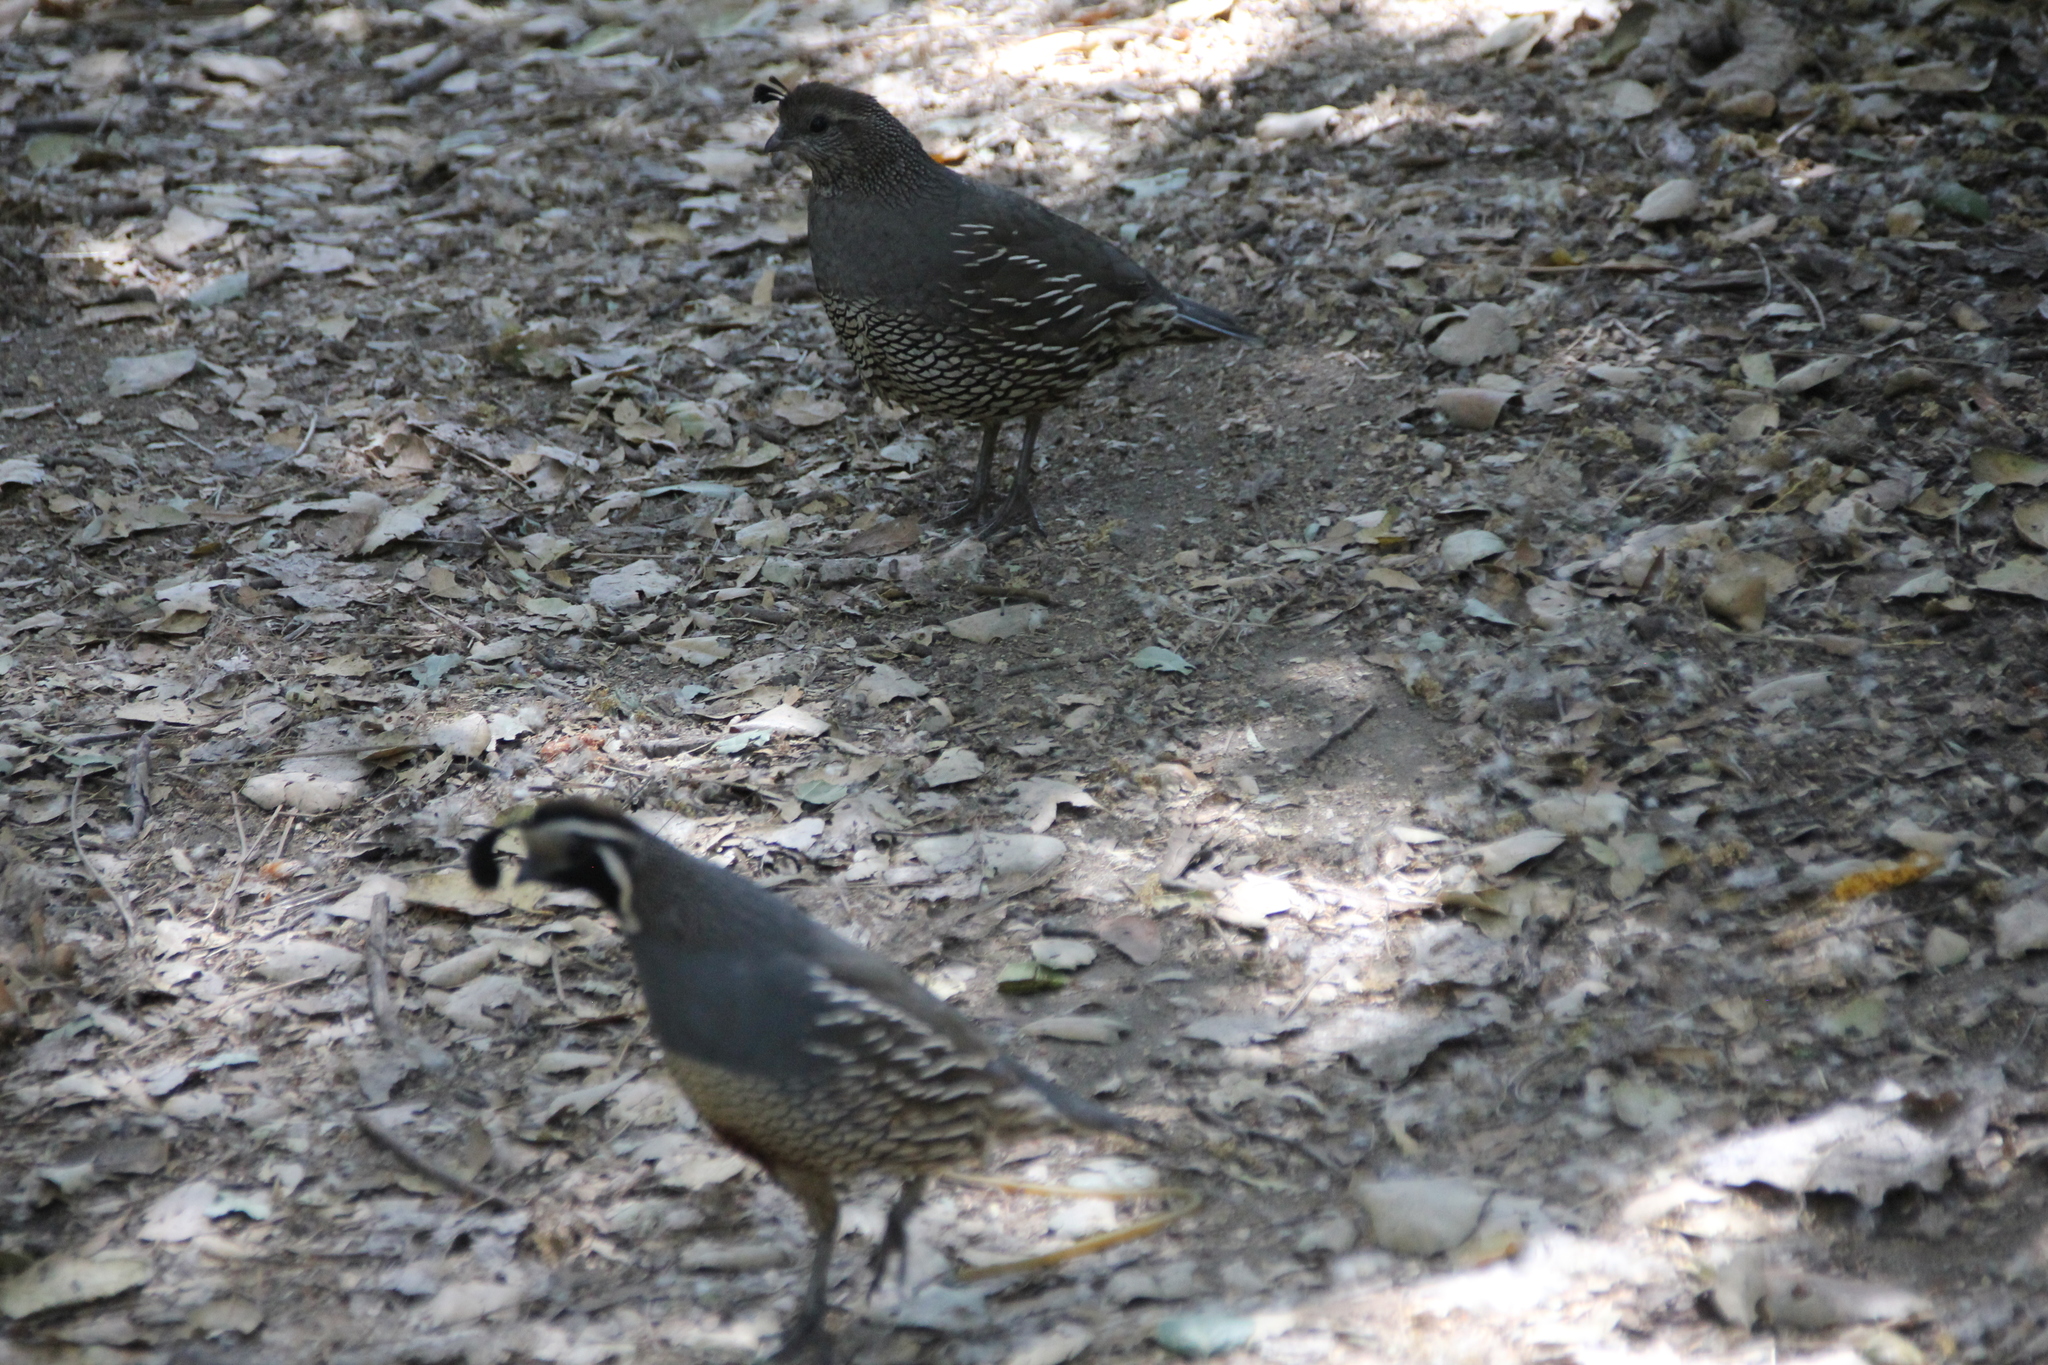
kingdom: Animalia
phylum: Chordata
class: Aves
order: Galliformes
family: Odontophoridae
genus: Callipepla
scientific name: Callipepla californica
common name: California quail
